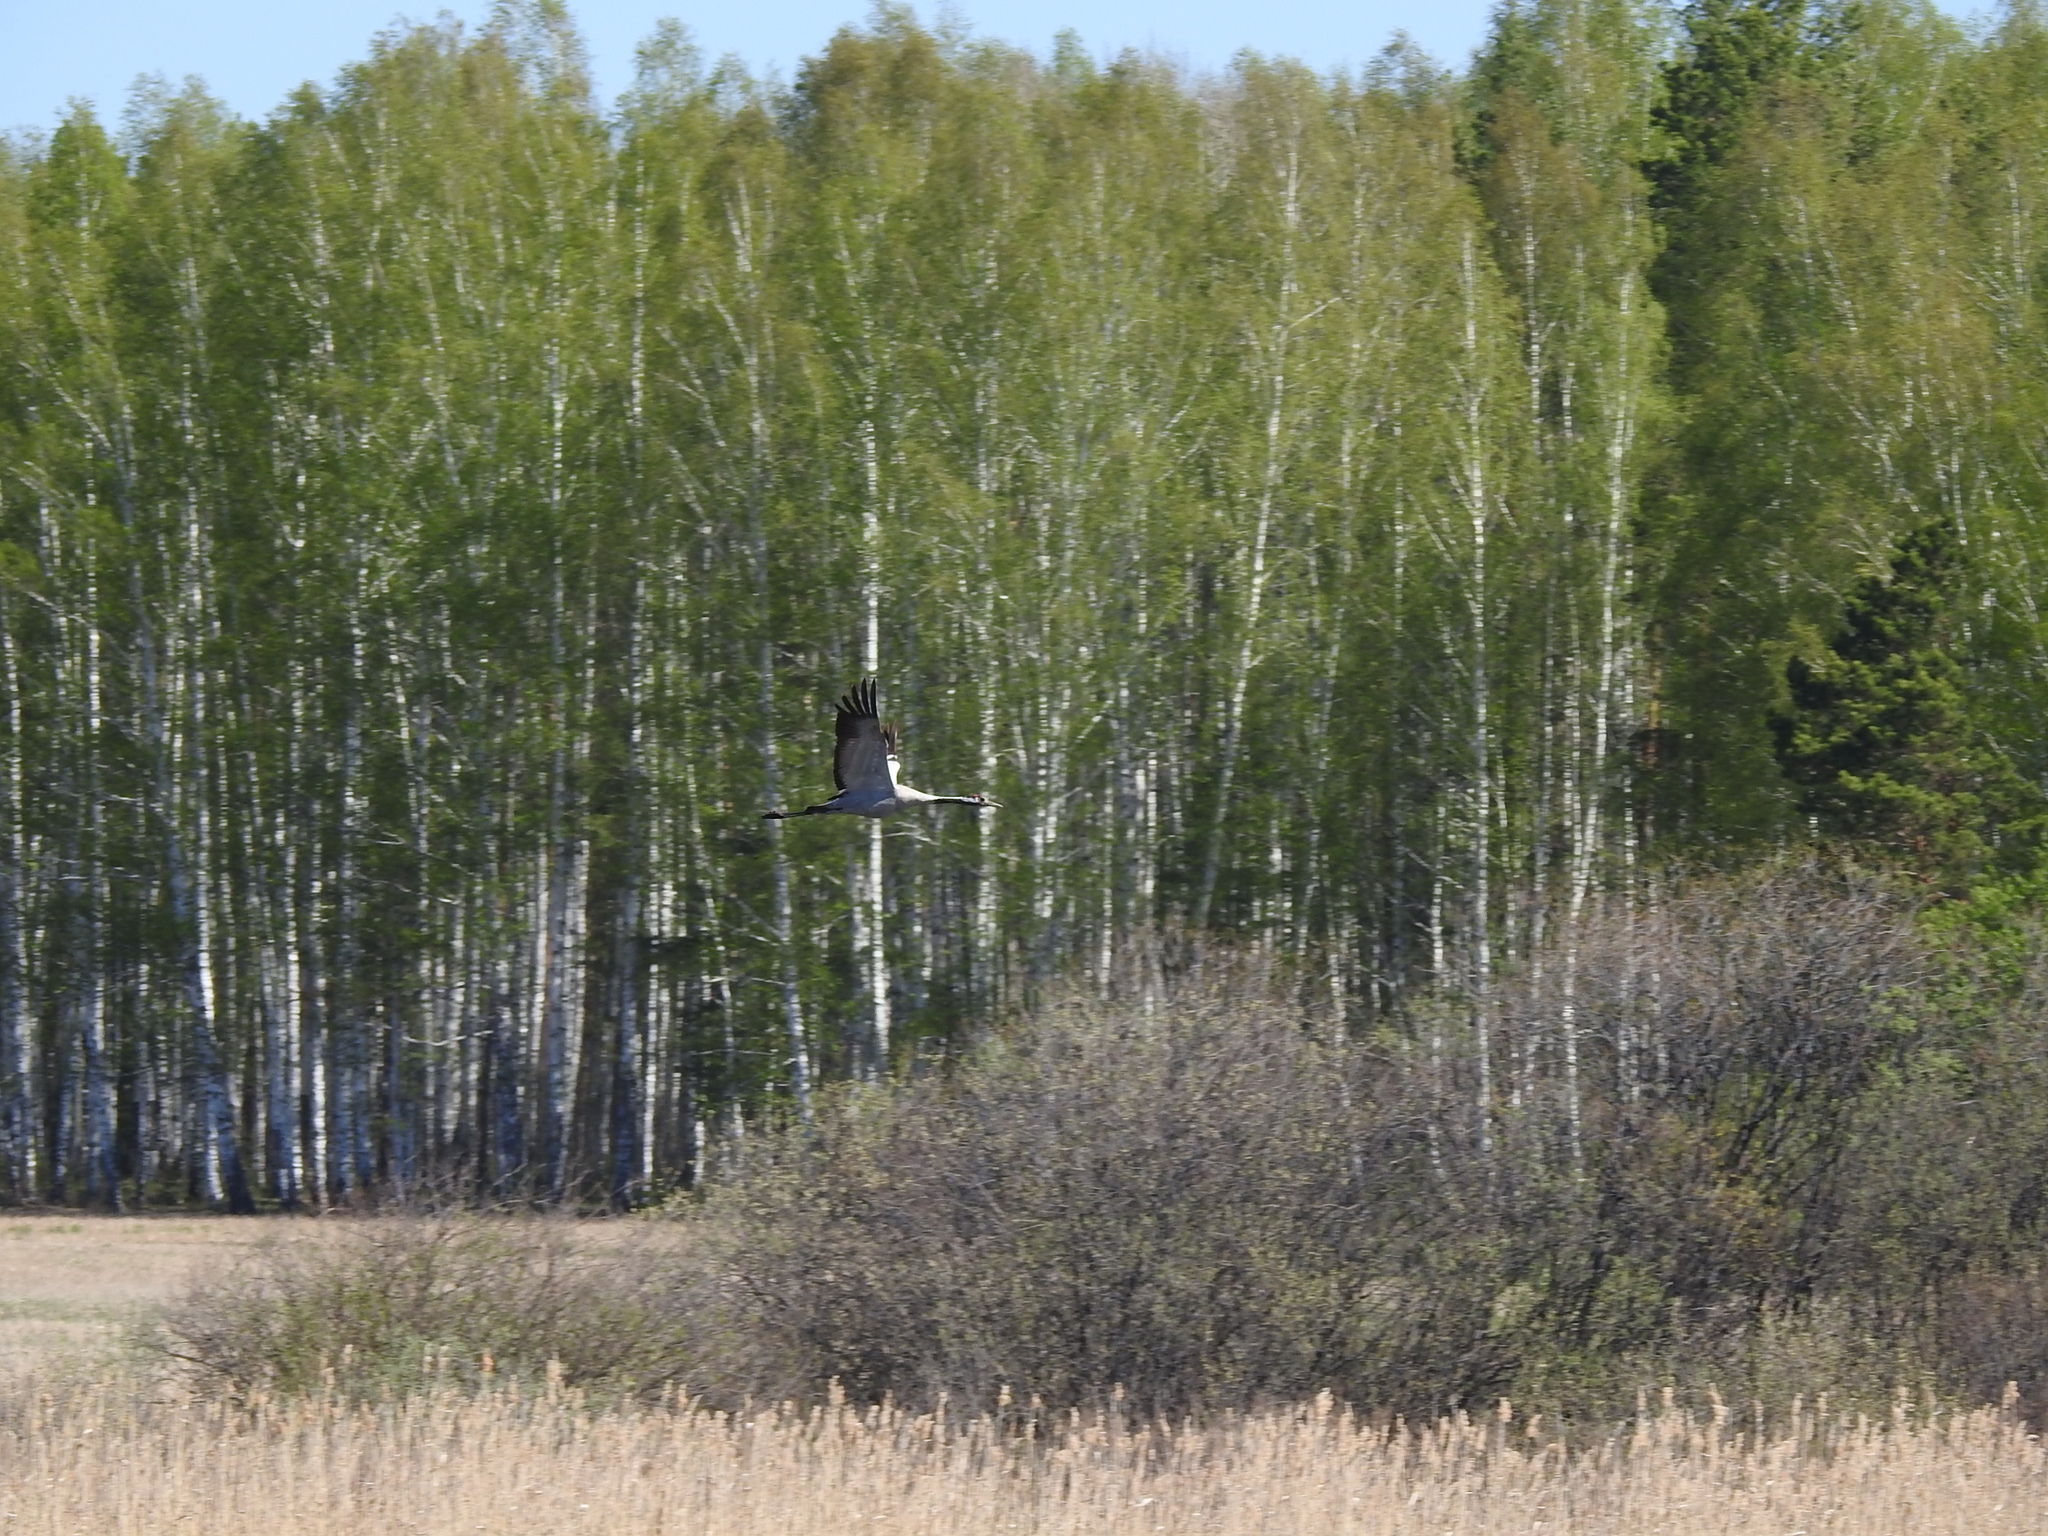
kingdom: Animalia
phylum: Chordata
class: Aves
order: Gruiformes
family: Gruidae
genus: Grus
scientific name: Grus grus
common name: Common crane
